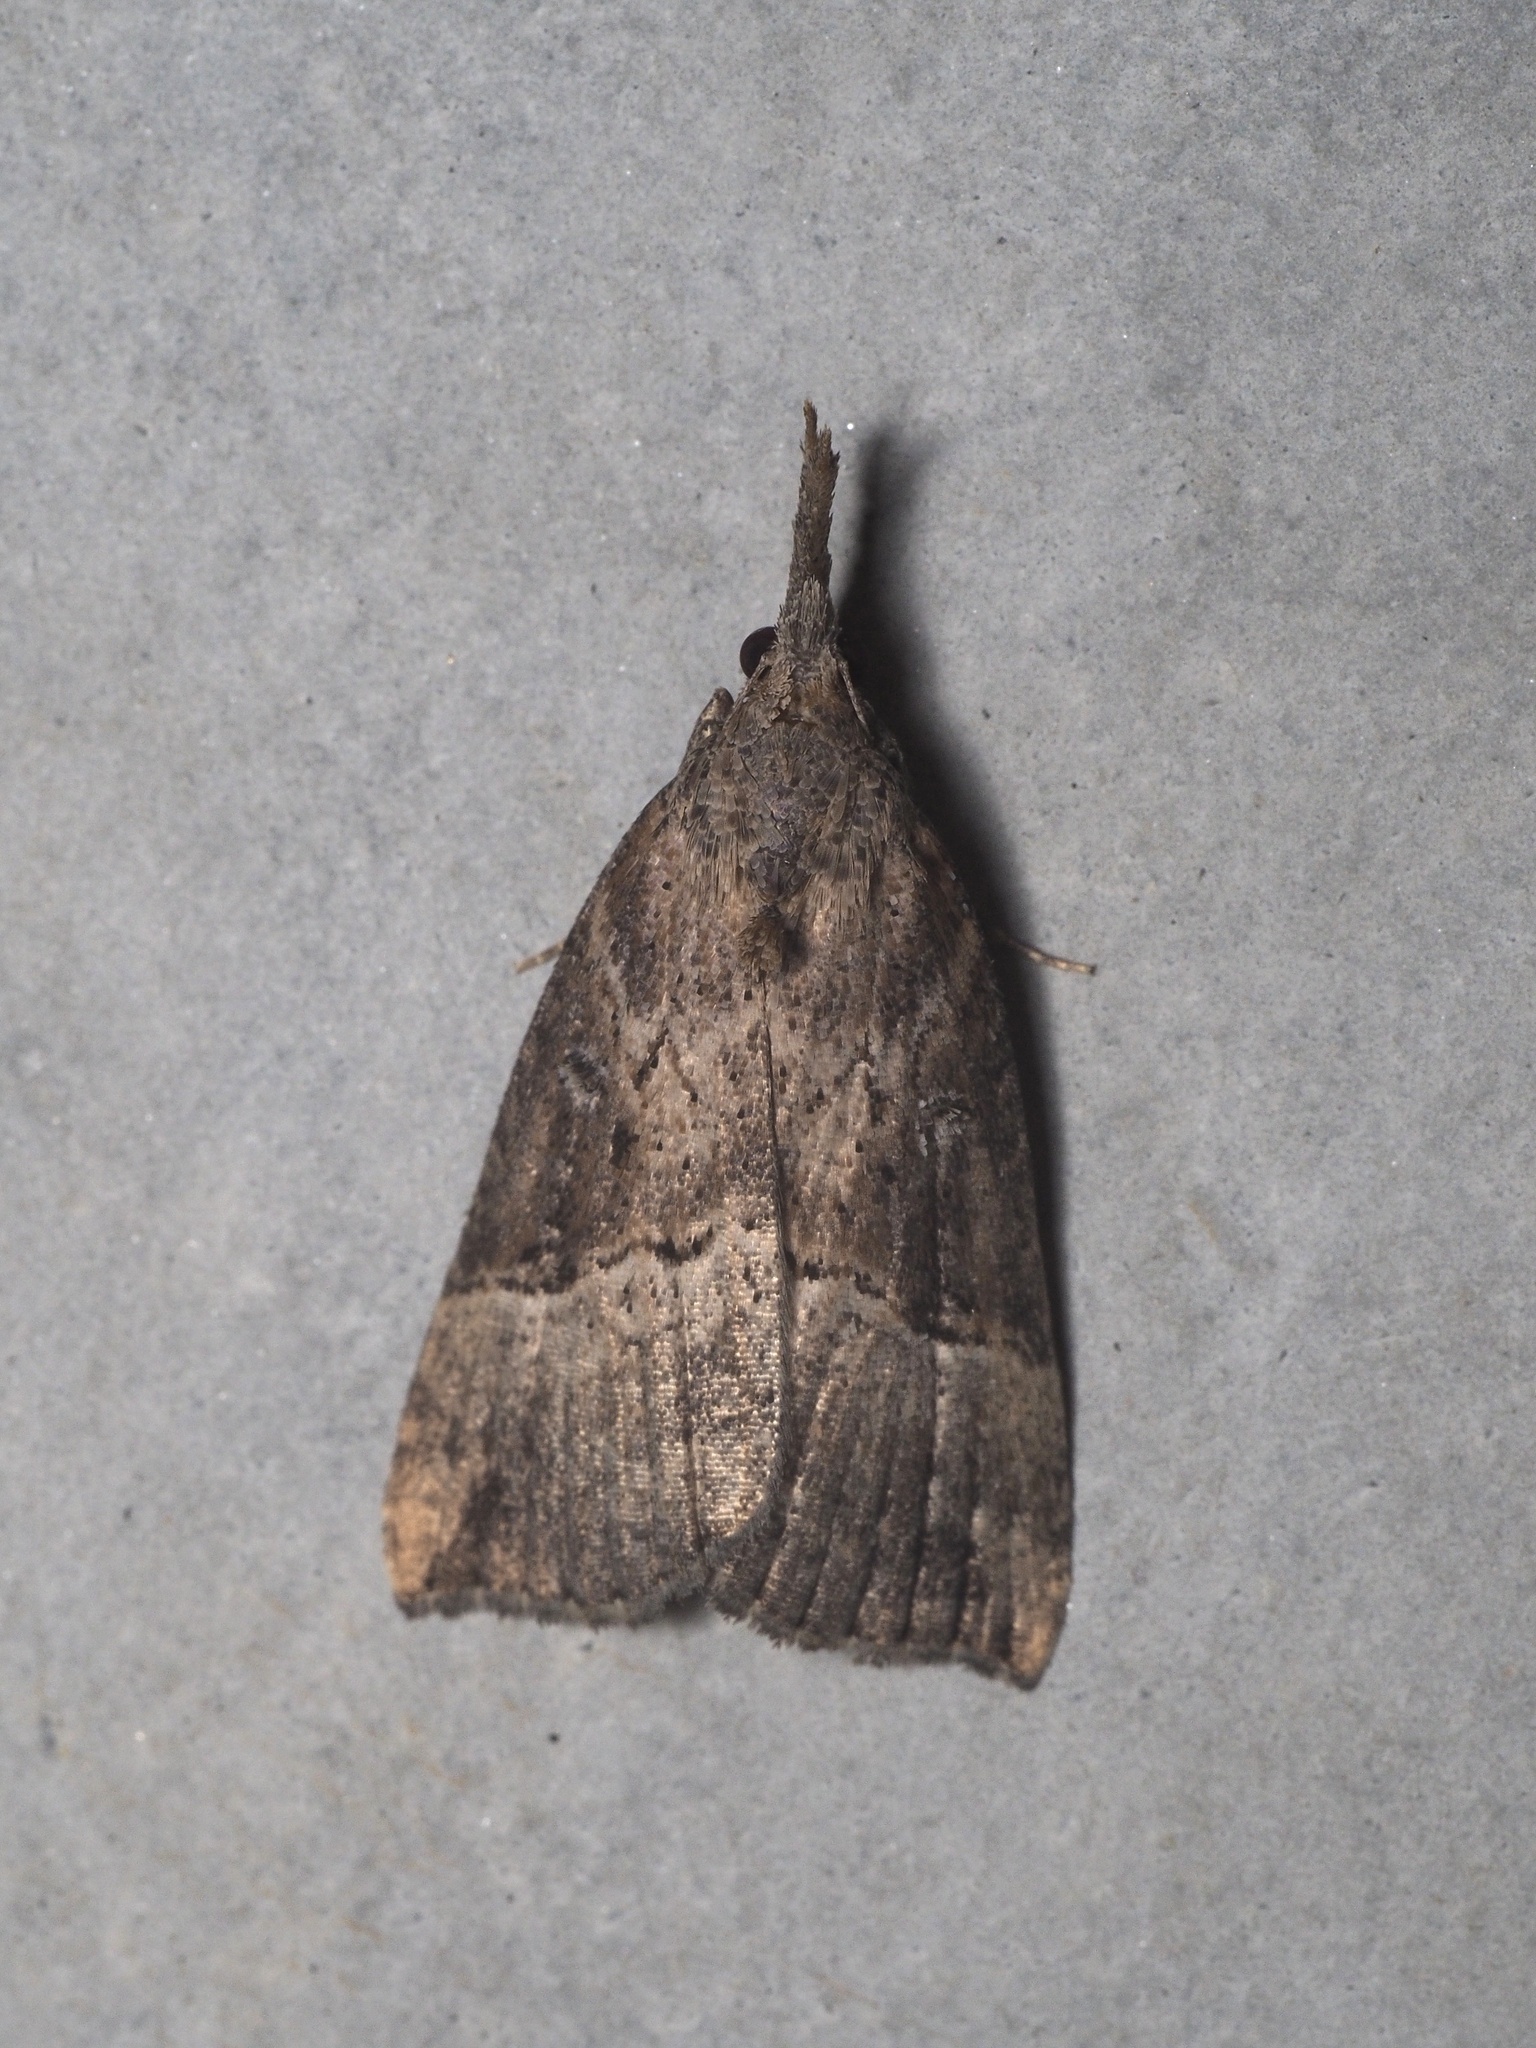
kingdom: Animalia
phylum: Arthropoda
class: Insecta
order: Lepidoptera
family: Erebidae
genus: Hypena
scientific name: Hypena rostralis
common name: Buttoned snout
